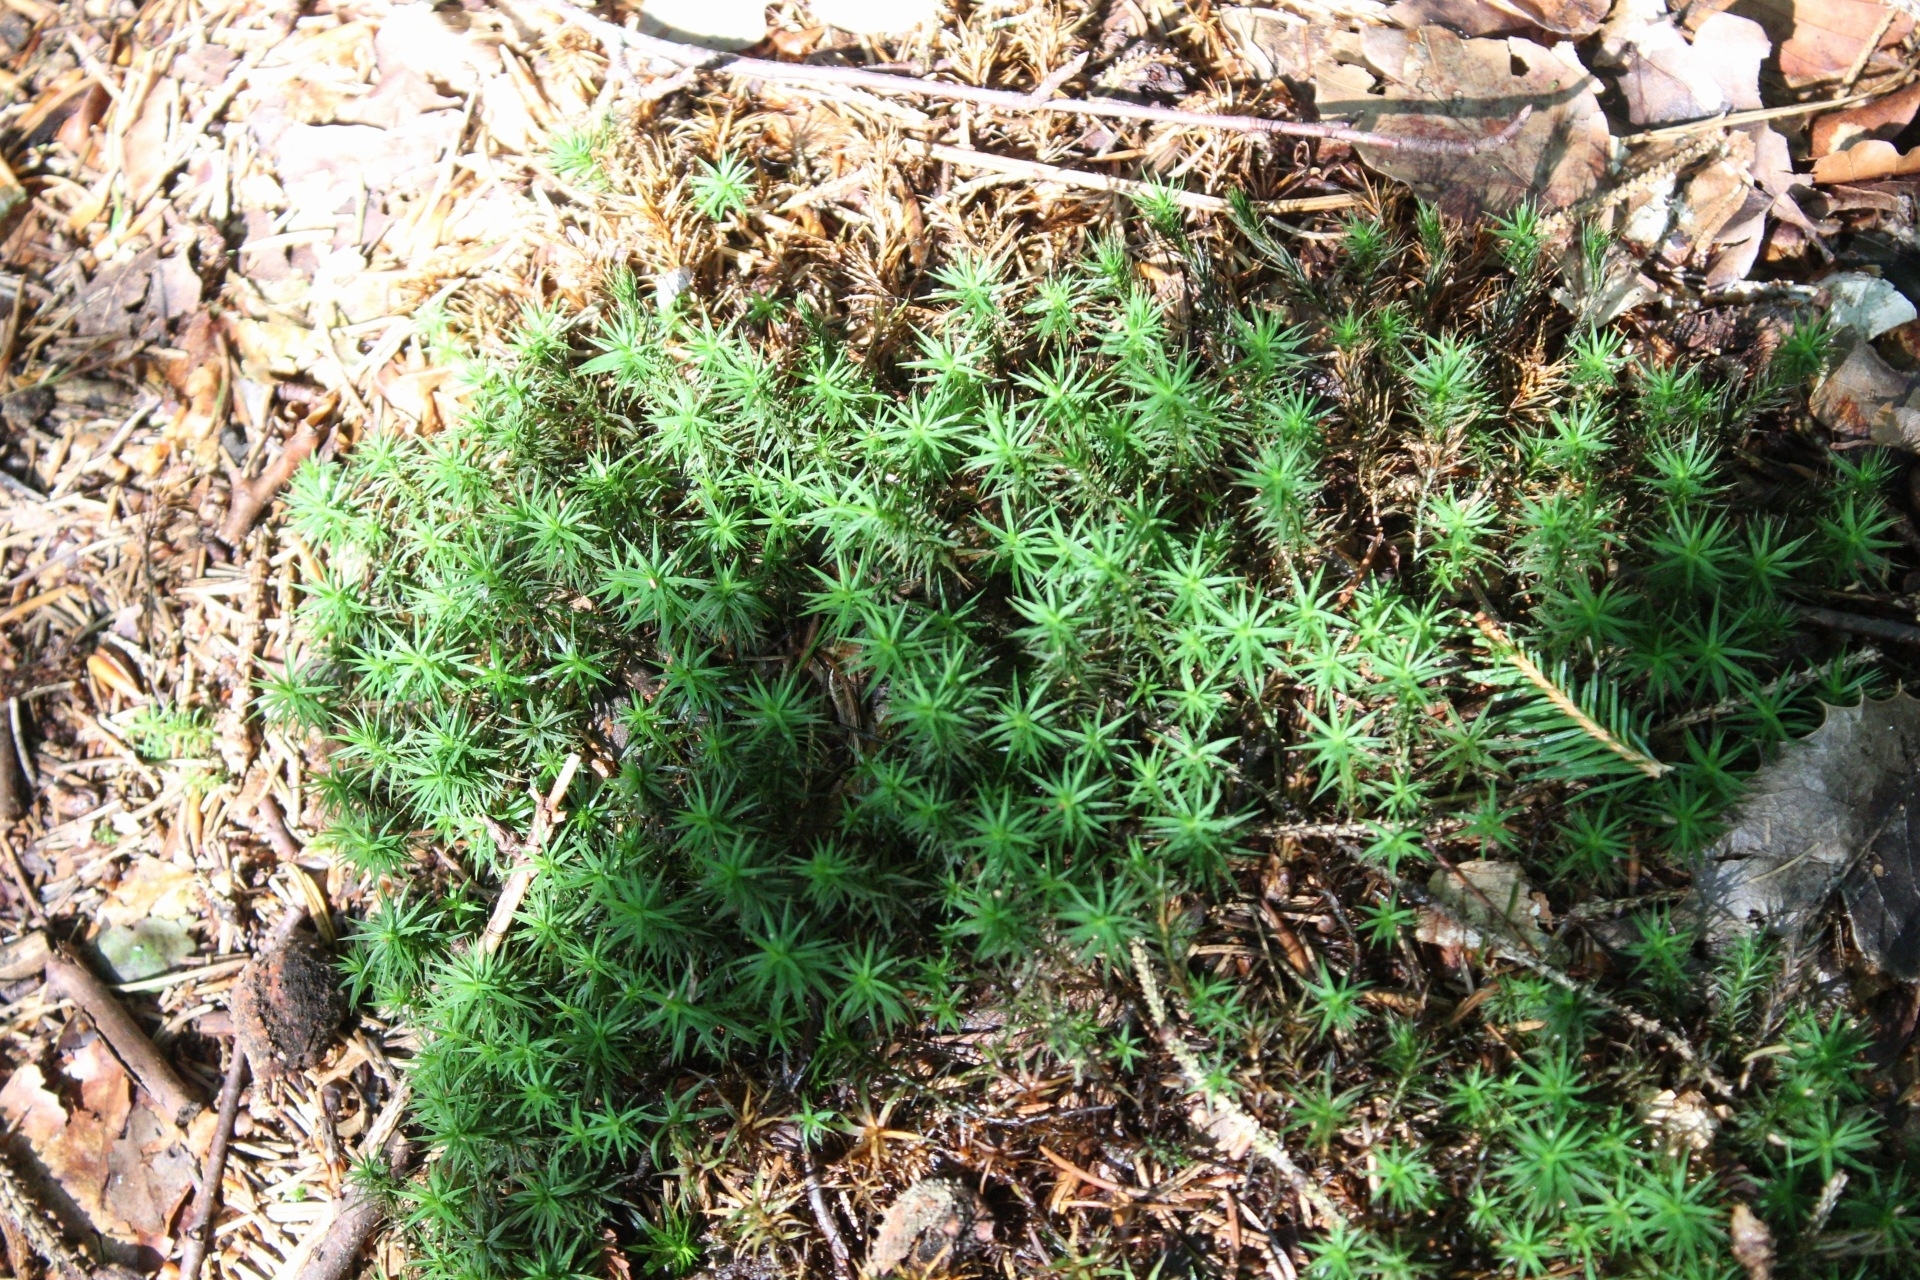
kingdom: Plantae
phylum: Bryophyta
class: Polytrichopsida
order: Polytrichales
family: Polytrichaceae
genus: Polytrichum
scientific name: Polytrichum formosum
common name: Bank haircap moss
